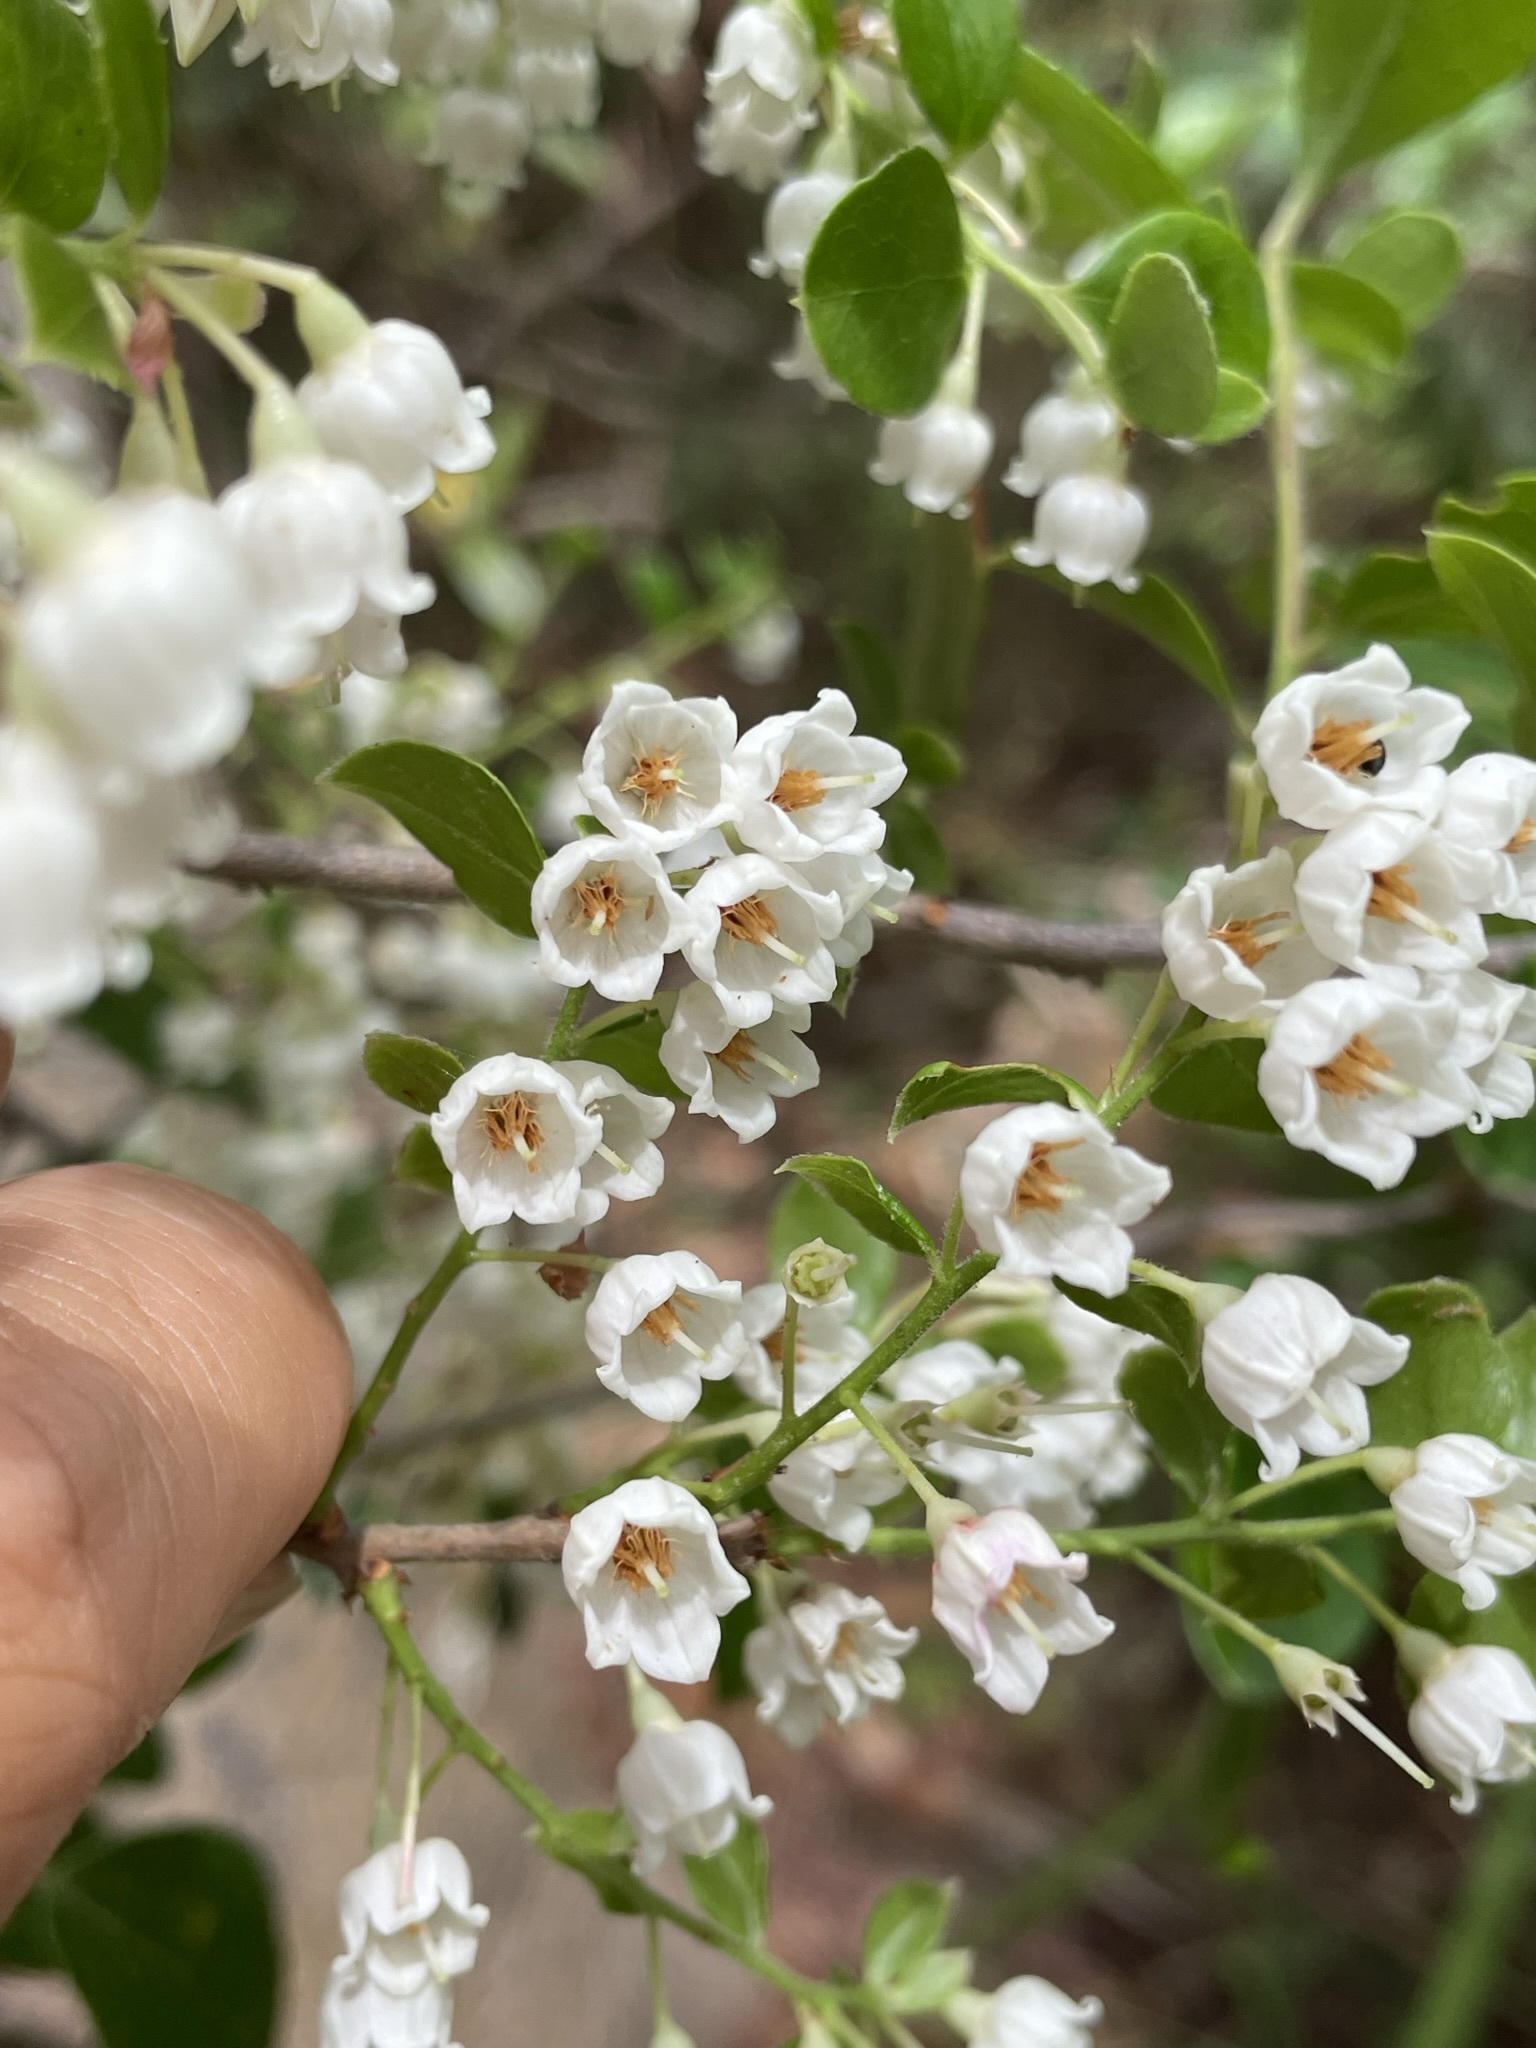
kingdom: Plantae
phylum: Tracheophyta
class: Magnoliopsida
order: Ericales
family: Ericaceae
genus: Vaccinium
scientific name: Vaccinium arboreum
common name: Farkleberry
